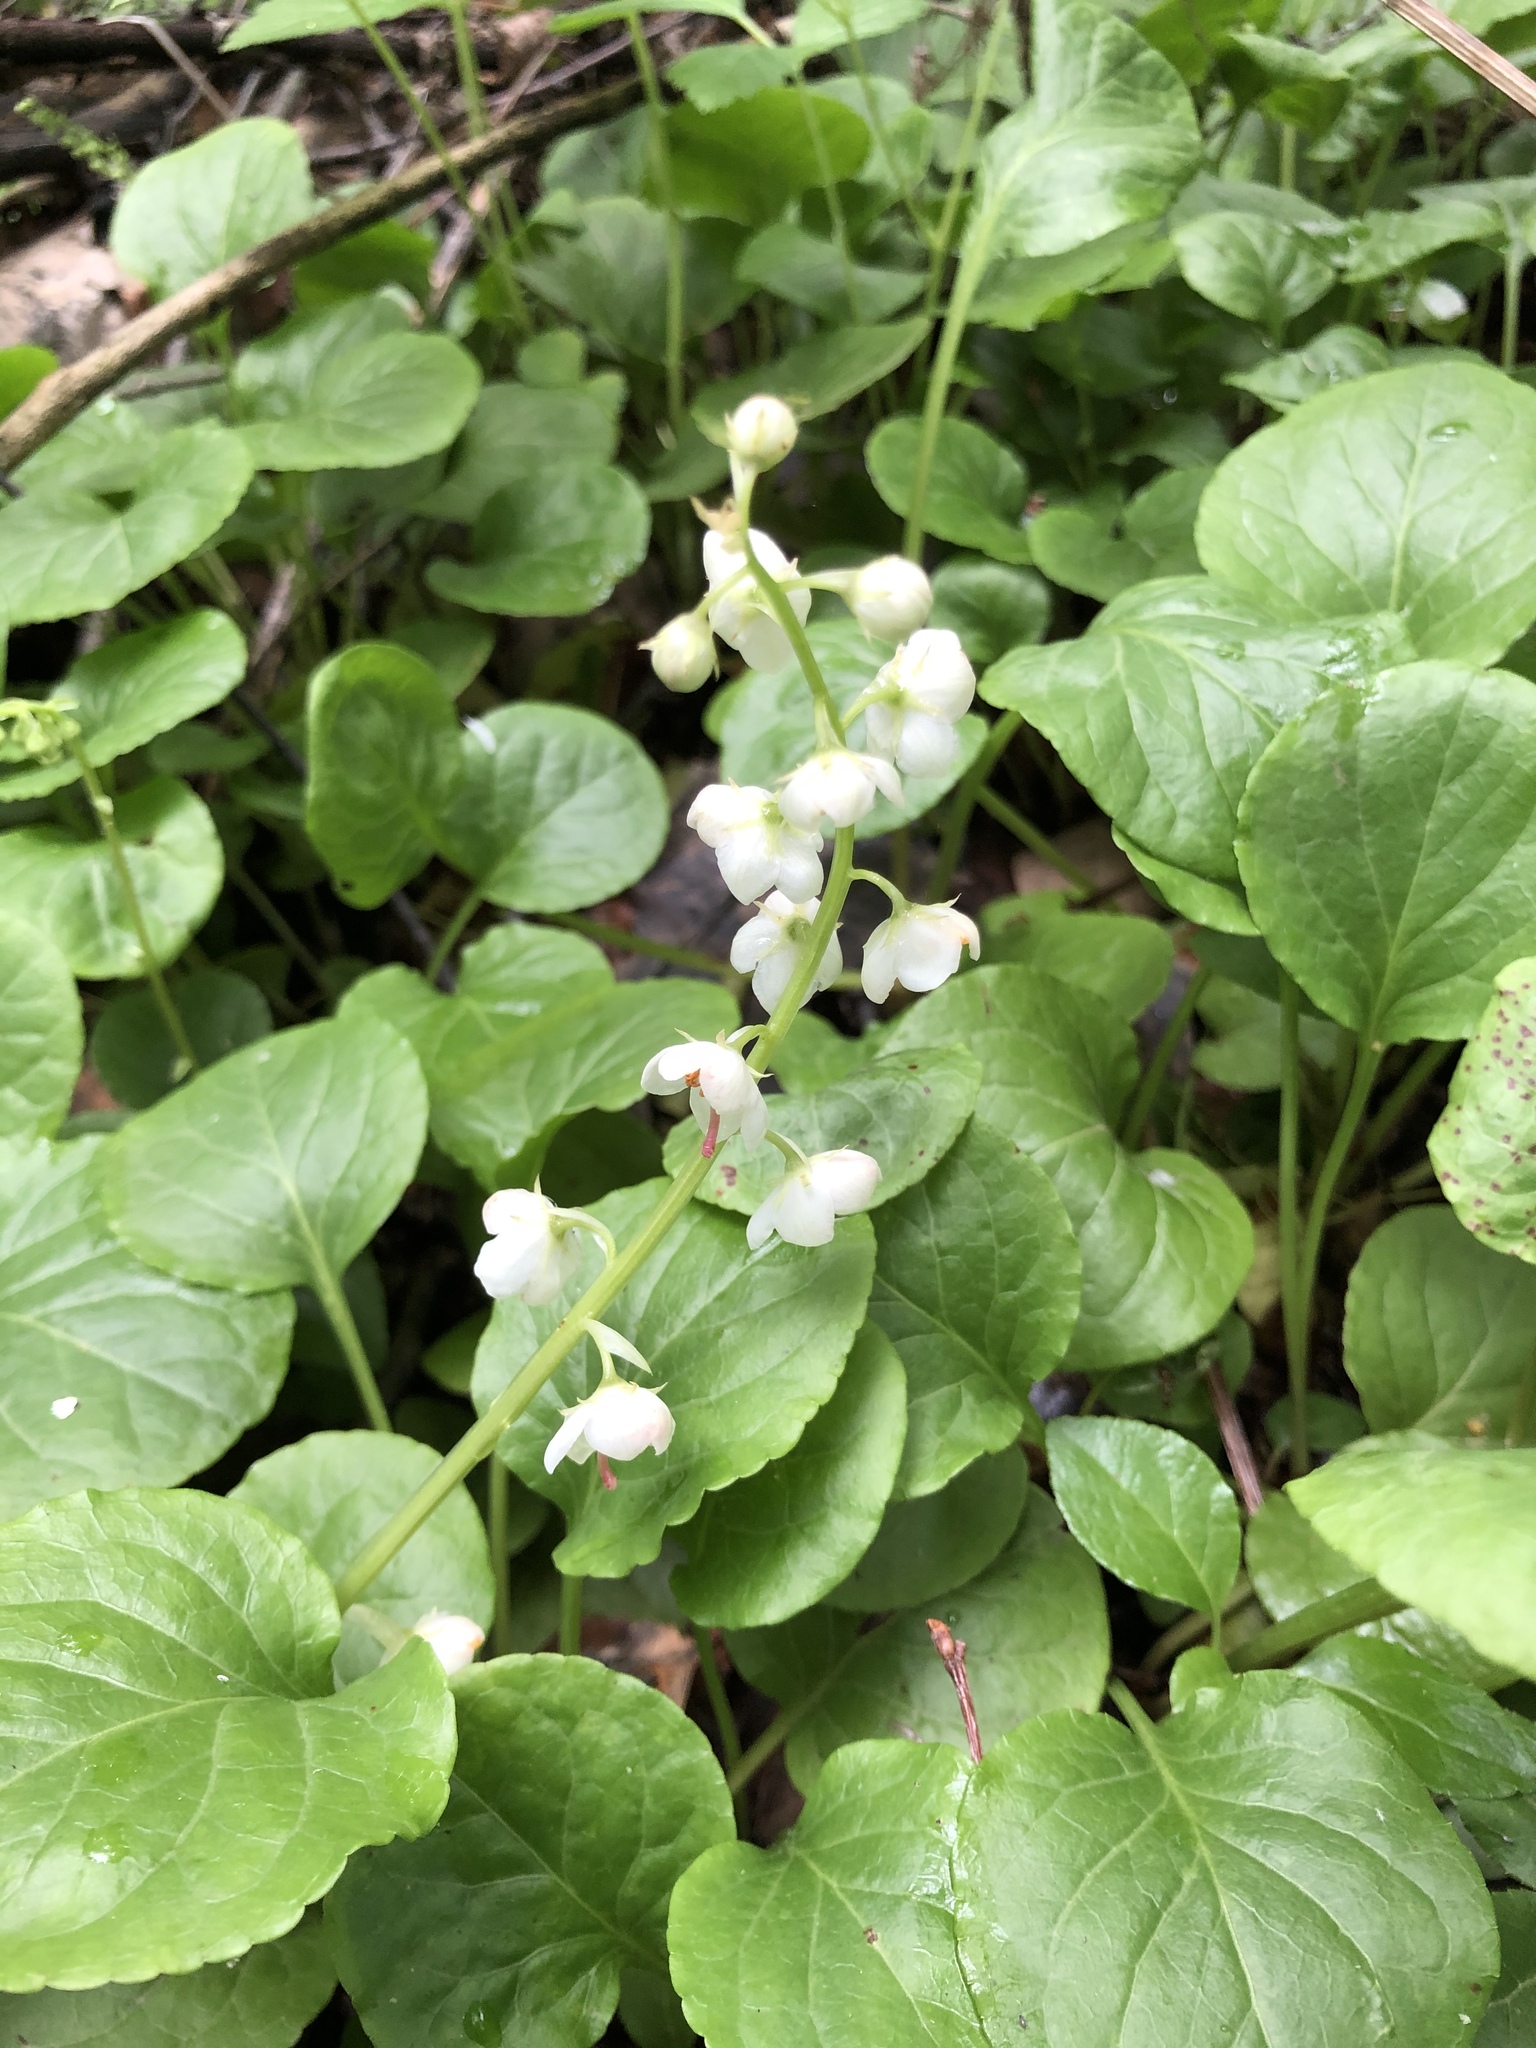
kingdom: Plantae
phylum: Tracheophyta
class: Magnoliopsida
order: Ericales
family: Ericaceae
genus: Pyrola
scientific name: Pyrola rotundifolia
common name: Round-leaved wintergreen
